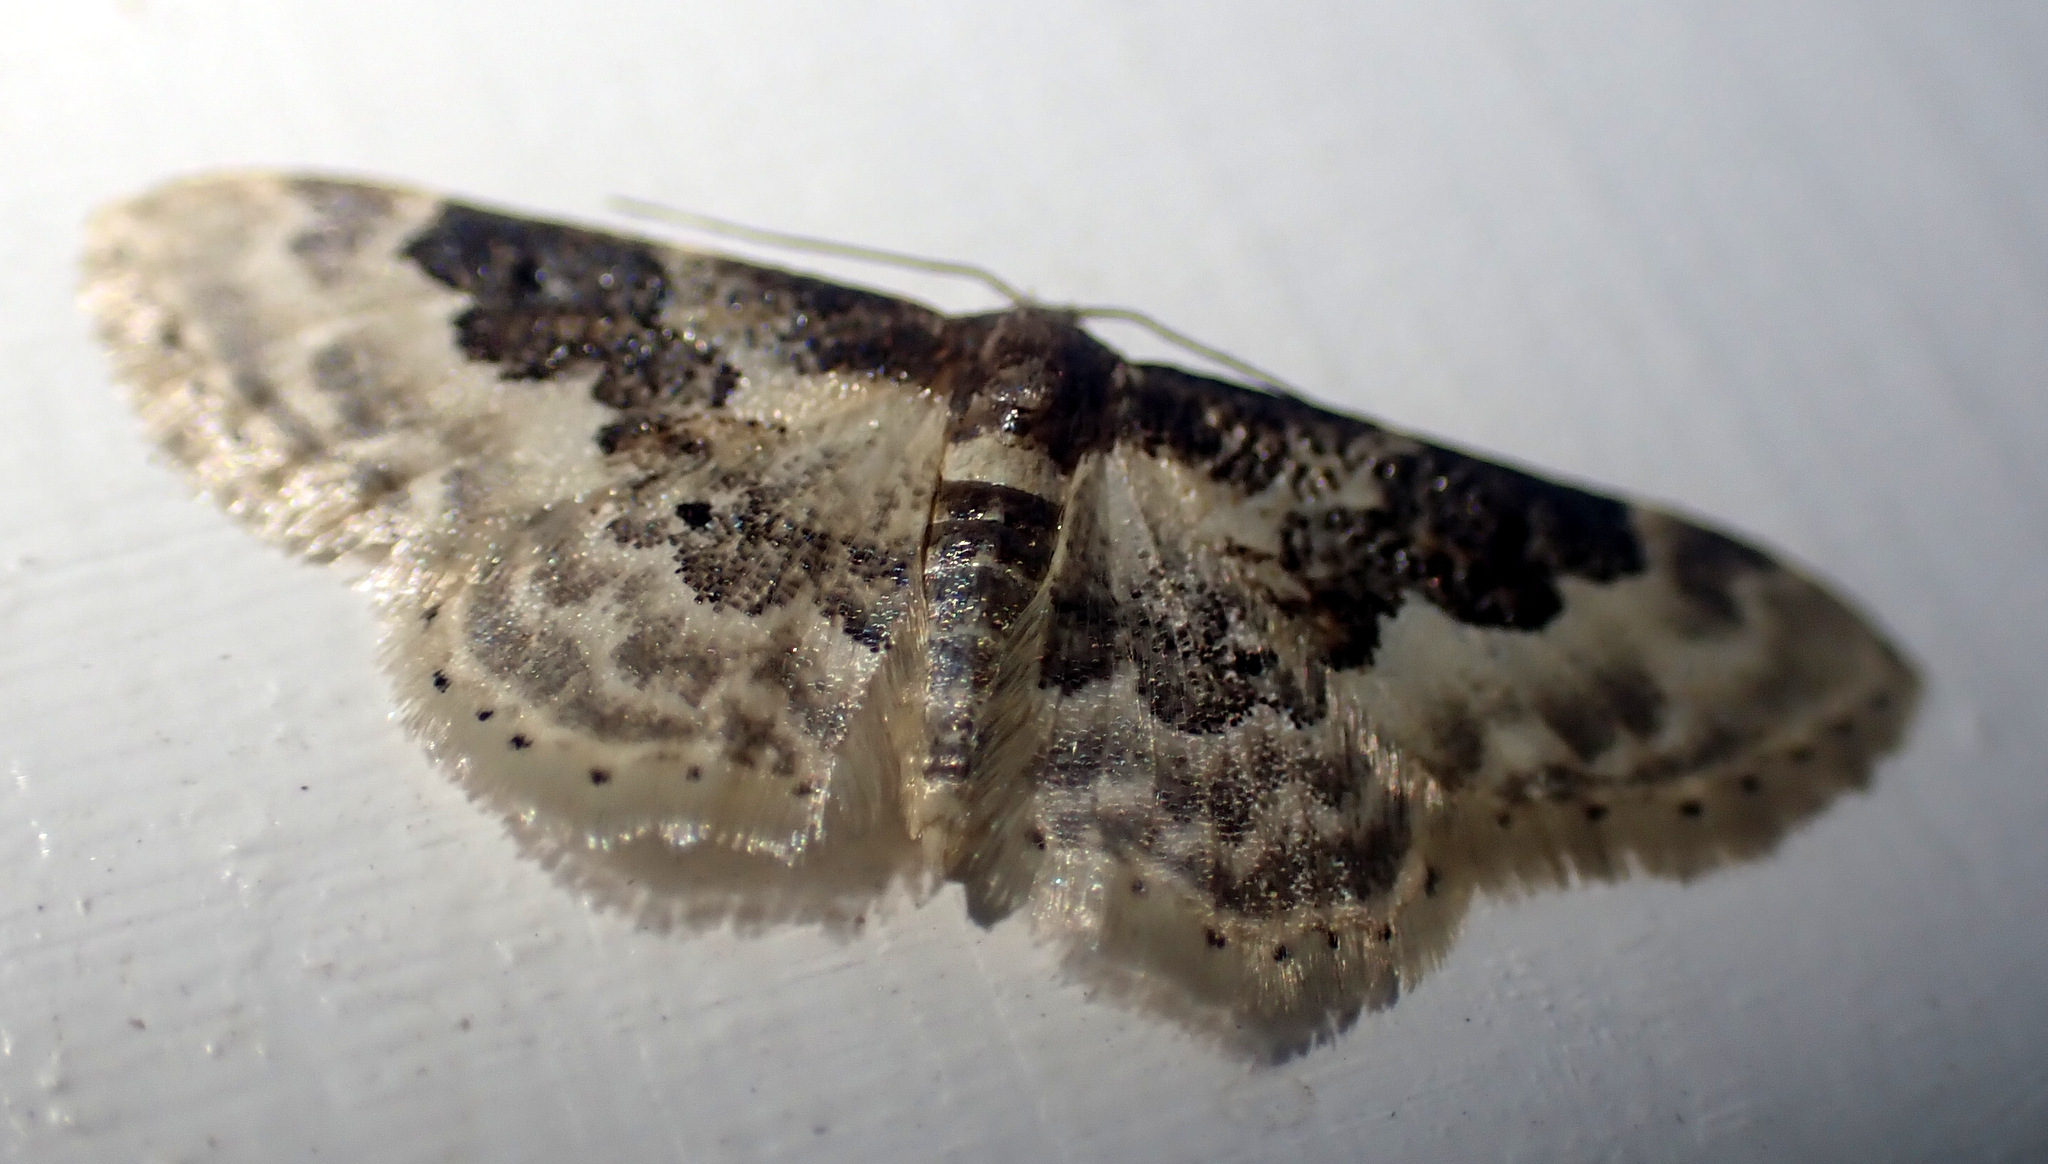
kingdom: Animalia
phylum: Arthropoda
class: Insecta
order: Lepidoptera
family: Geometridae
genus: Idaea
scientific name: Idaea rusticata
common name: Least carpet
